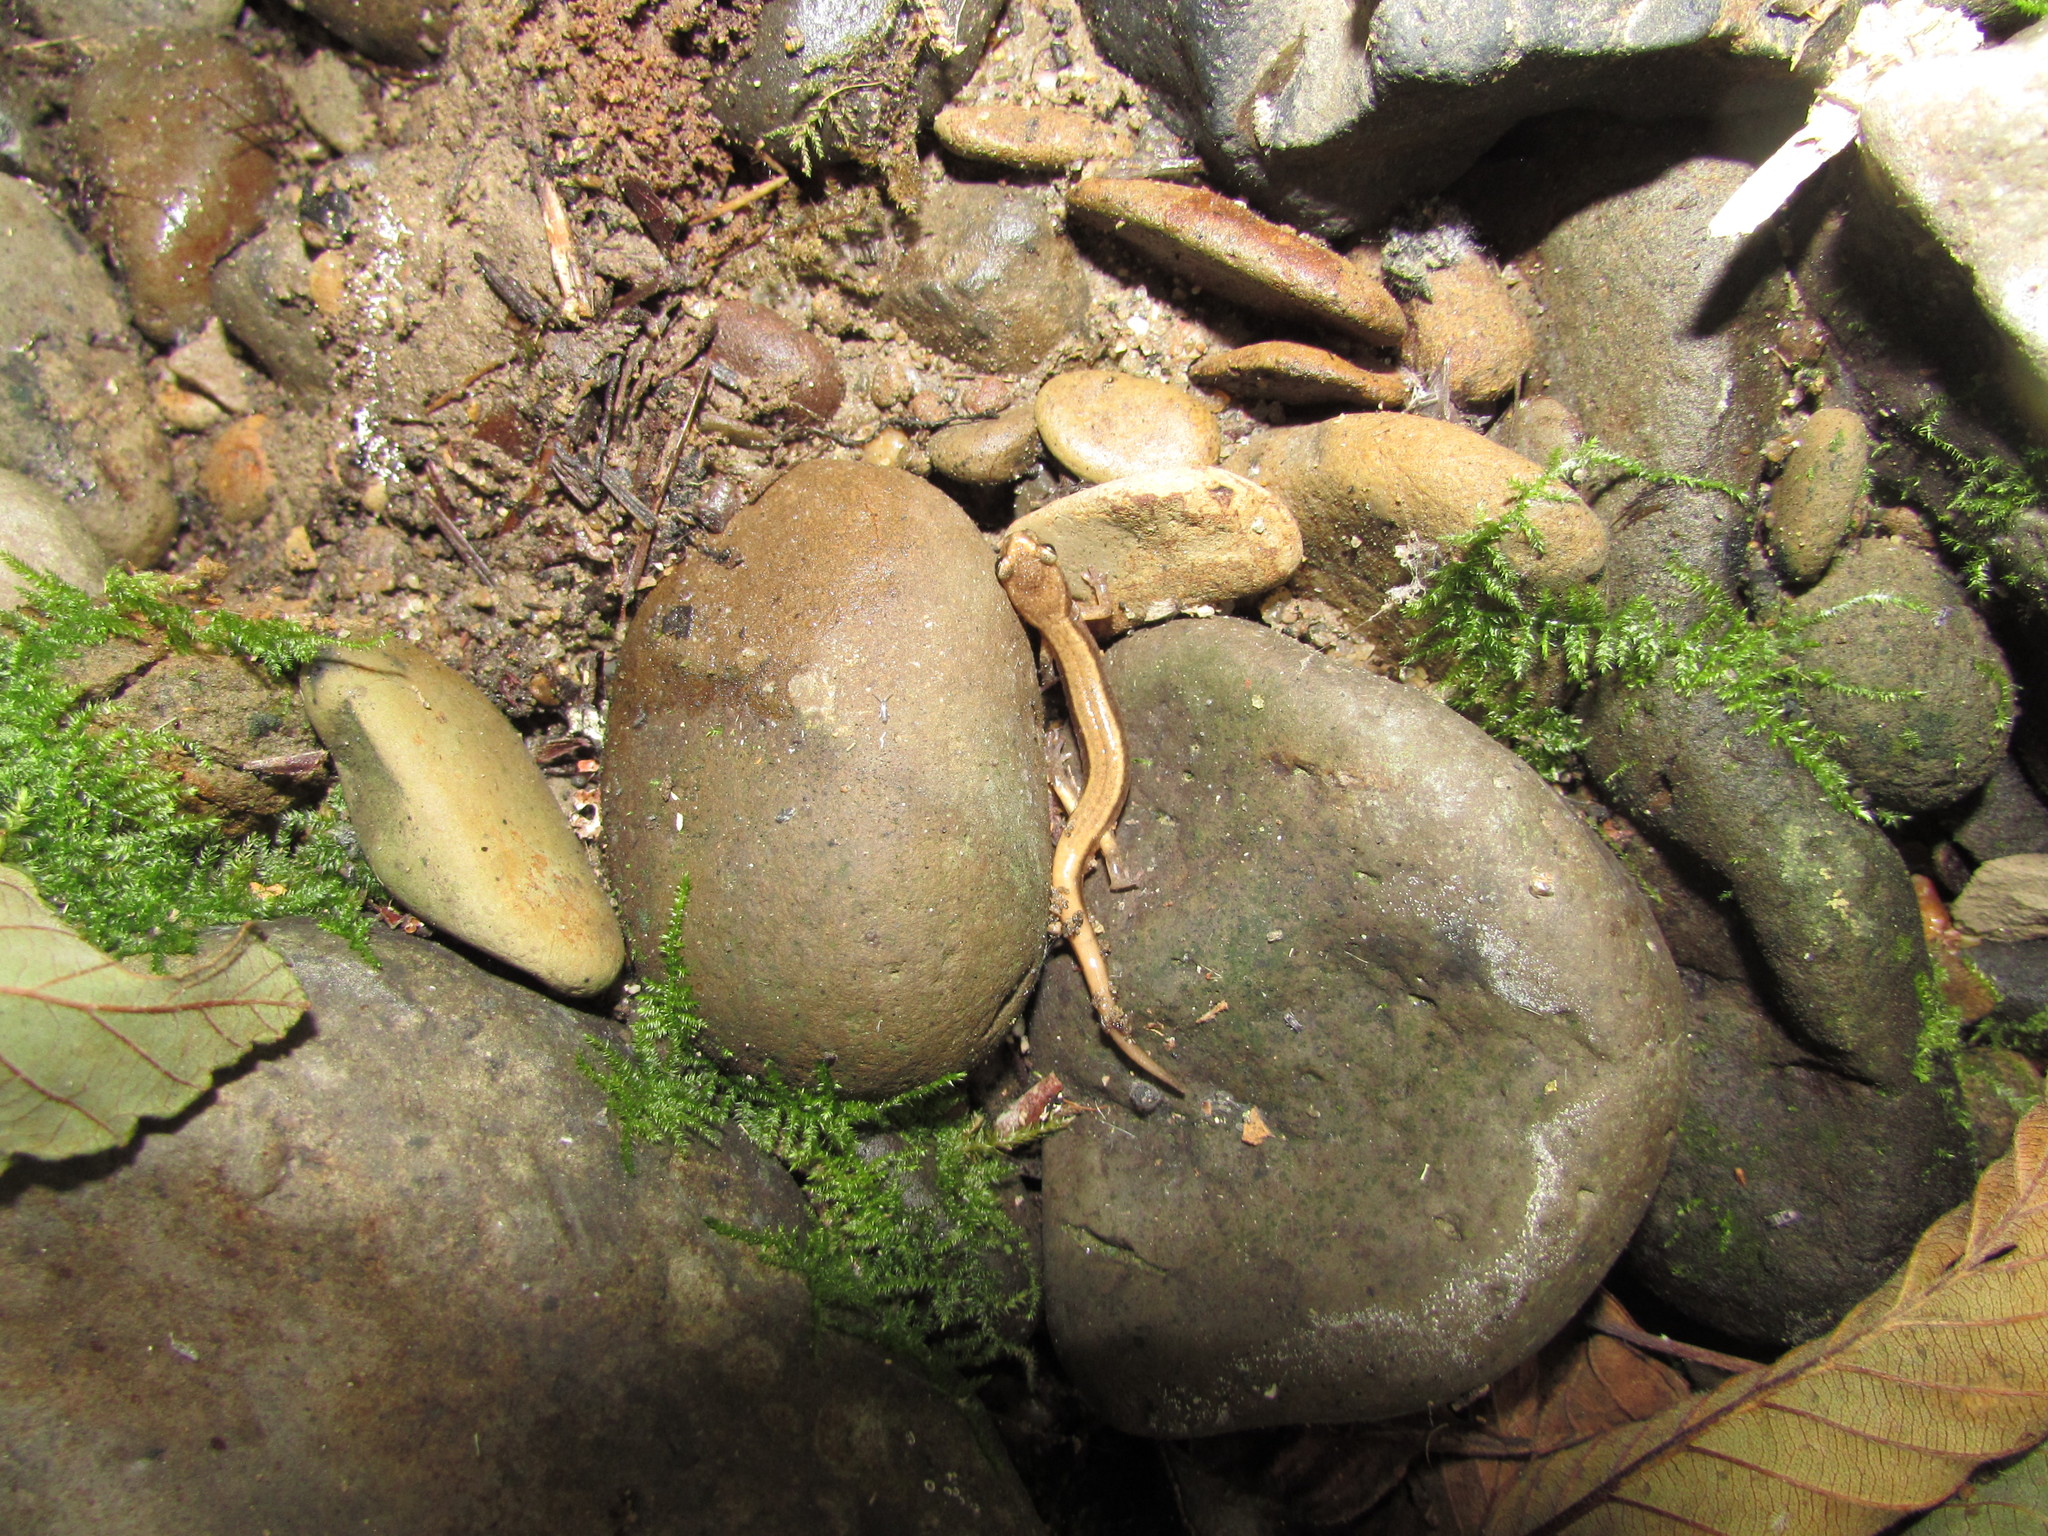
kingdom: Animalia
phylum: Chordata
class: Amphibia
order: Caudata
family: Plethodontidae
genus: Plethodon
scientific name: Plethodon vehiculum
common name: Western red-backed salamander
